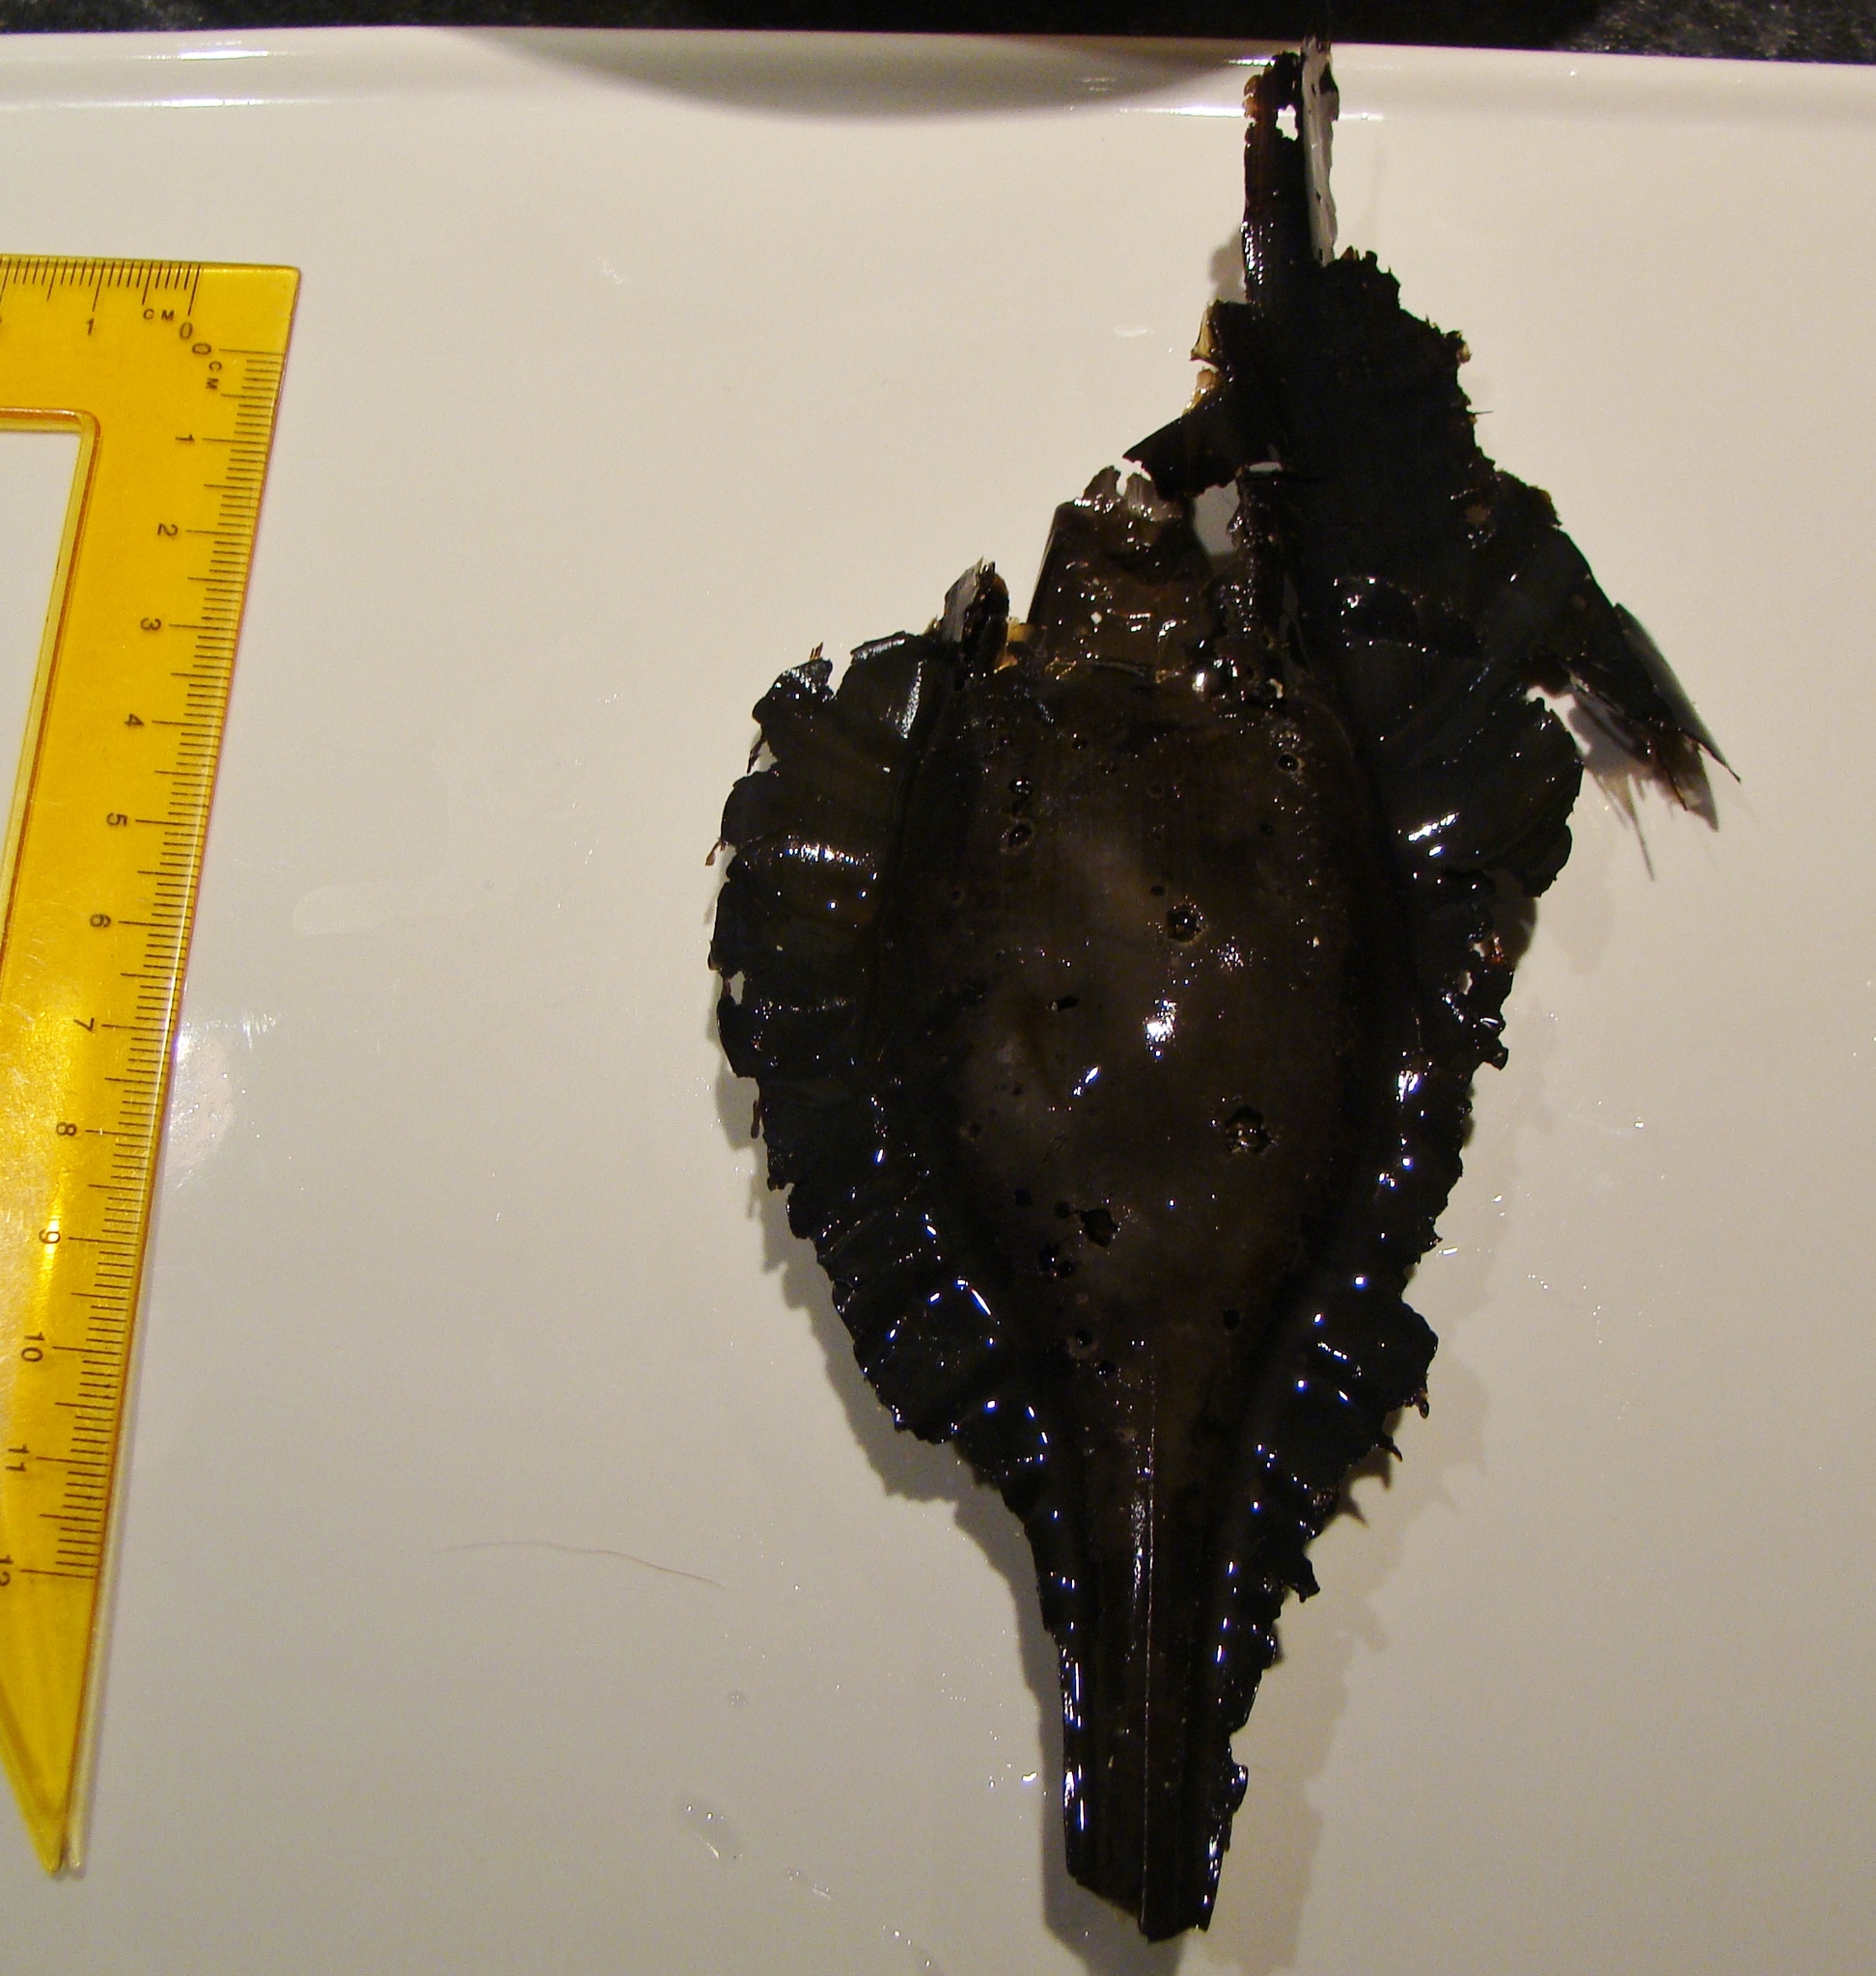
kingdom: Animalia
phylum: Chordata
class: Holocephali
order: Chimaeriformes
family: Callorhinchidae
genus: Callorhinchus
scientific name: Callorhinchus milii
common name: Elephant fish
